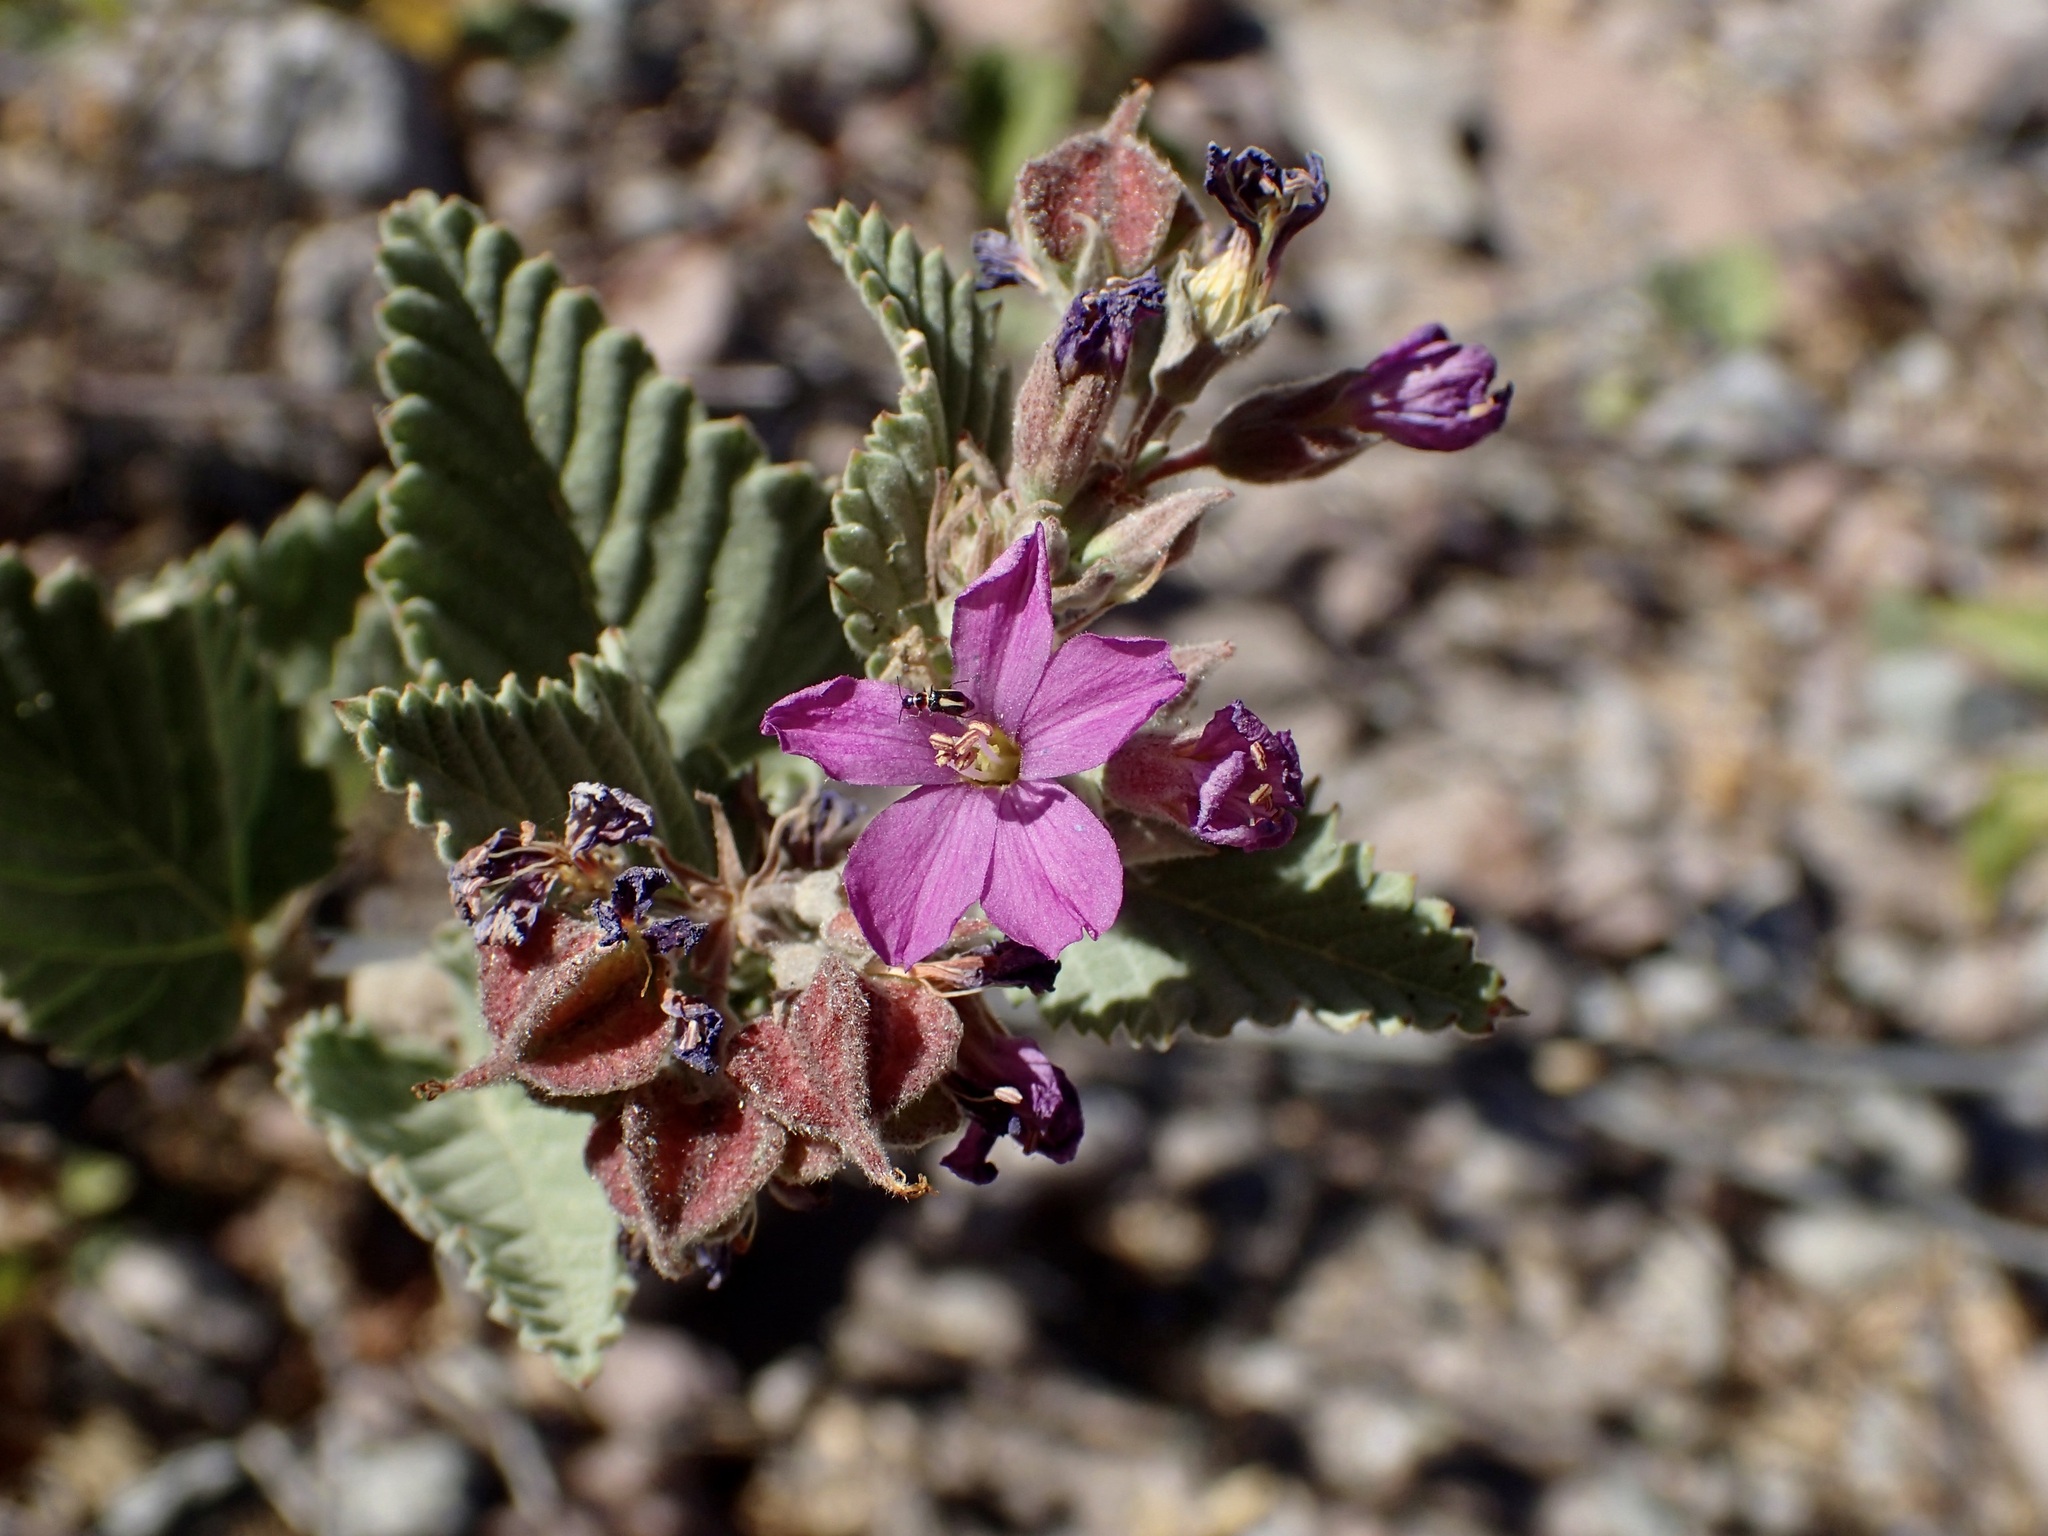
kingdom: Plantae
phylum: Tracheophyta
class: Magnoliopsida
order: Malvales
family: Malvaceae
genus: Melochia
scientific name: Melochia tomentosa
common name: Black torch
